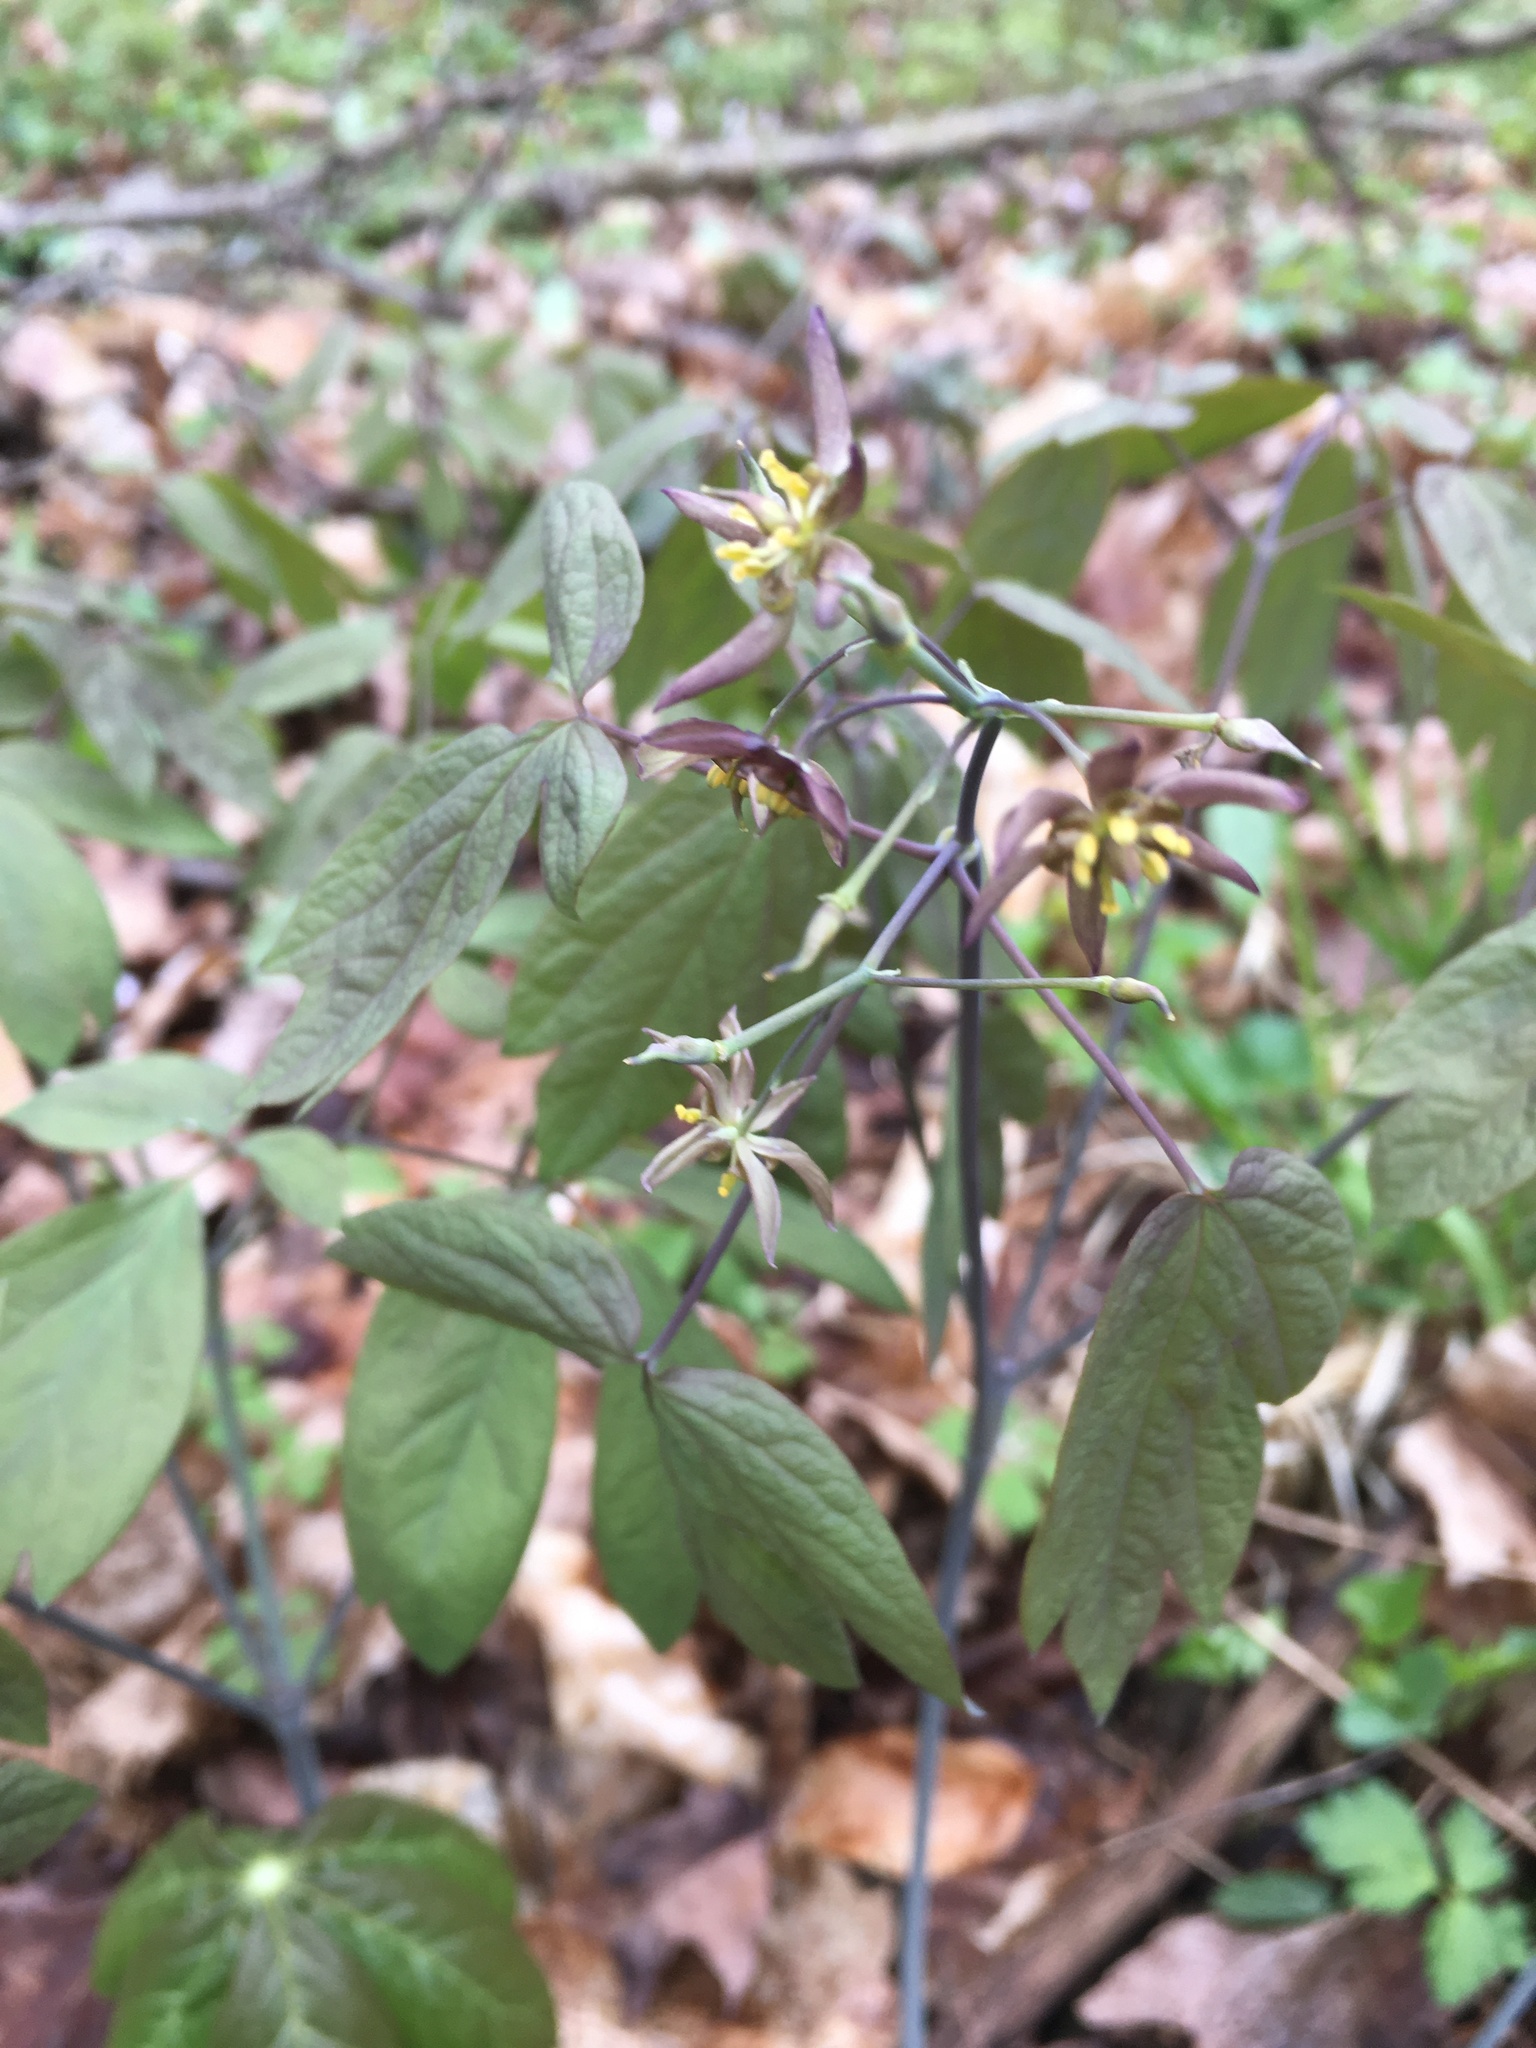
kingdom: Plantae
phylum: Tracheophyta
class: Magnoliopsida
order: Ranunculales
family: Berberidaceae
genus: Caulophyllum
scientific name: Caulophyllum giganteum
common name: Blue cohosh
